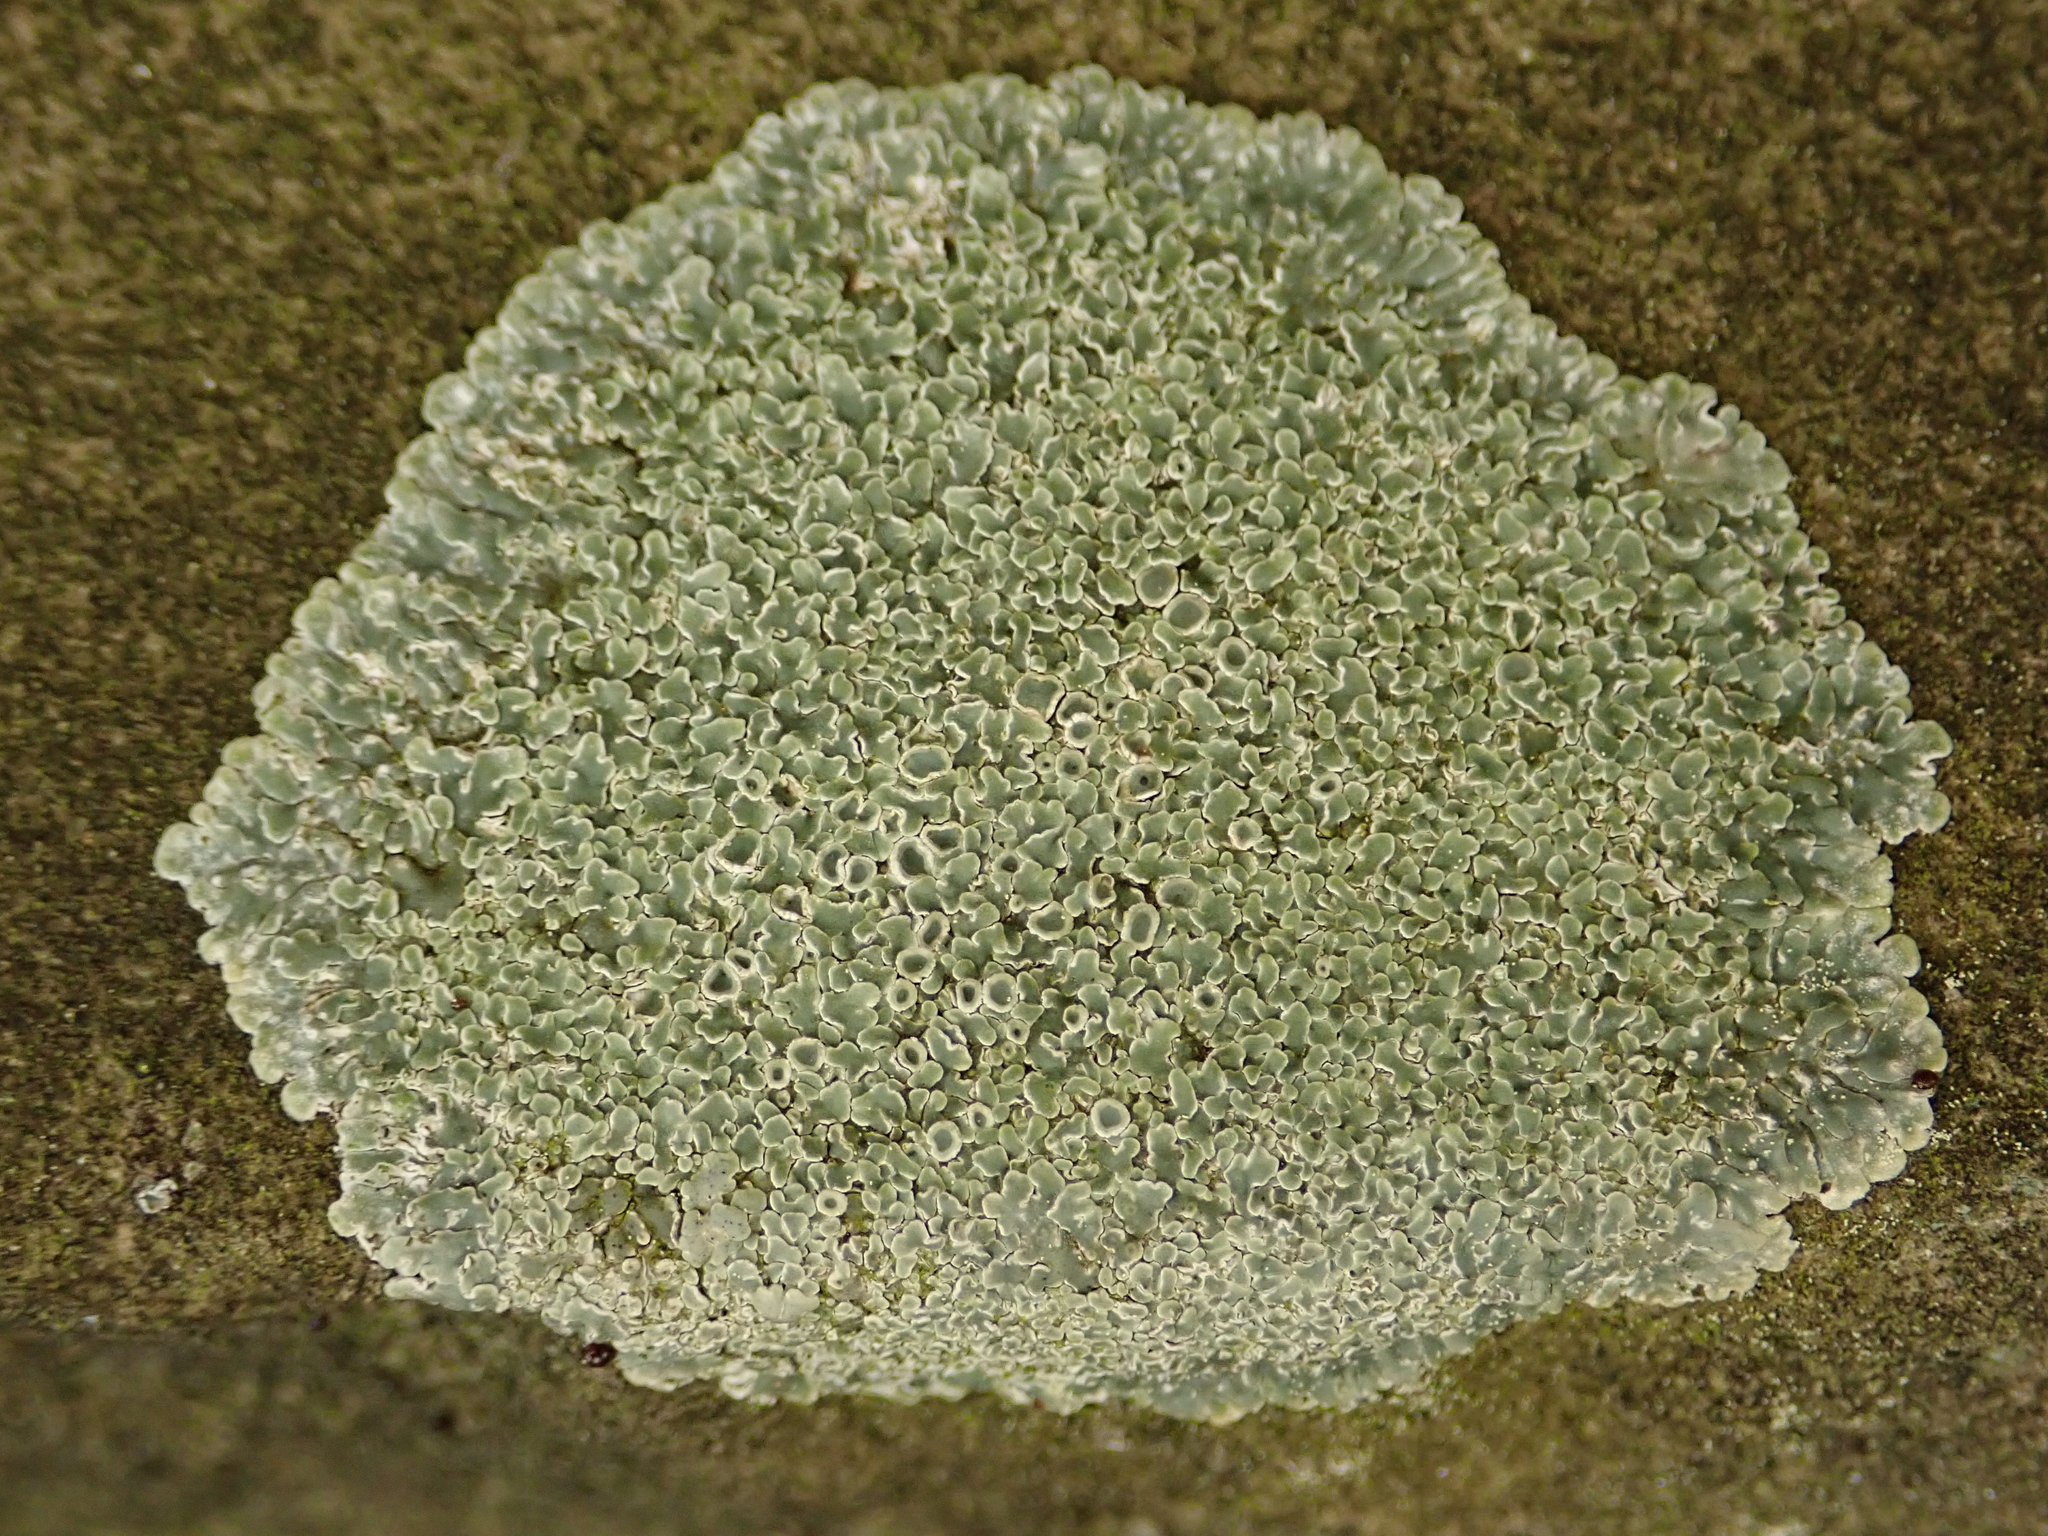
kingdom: Fungi
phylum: Ascomycota
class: Lecanoromycetes
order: Lecanorales
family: Lecanoraceae
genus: Protoparmeliopsis
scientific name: Protoparmeliopsis muralis
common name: Stonewall rim lichen
